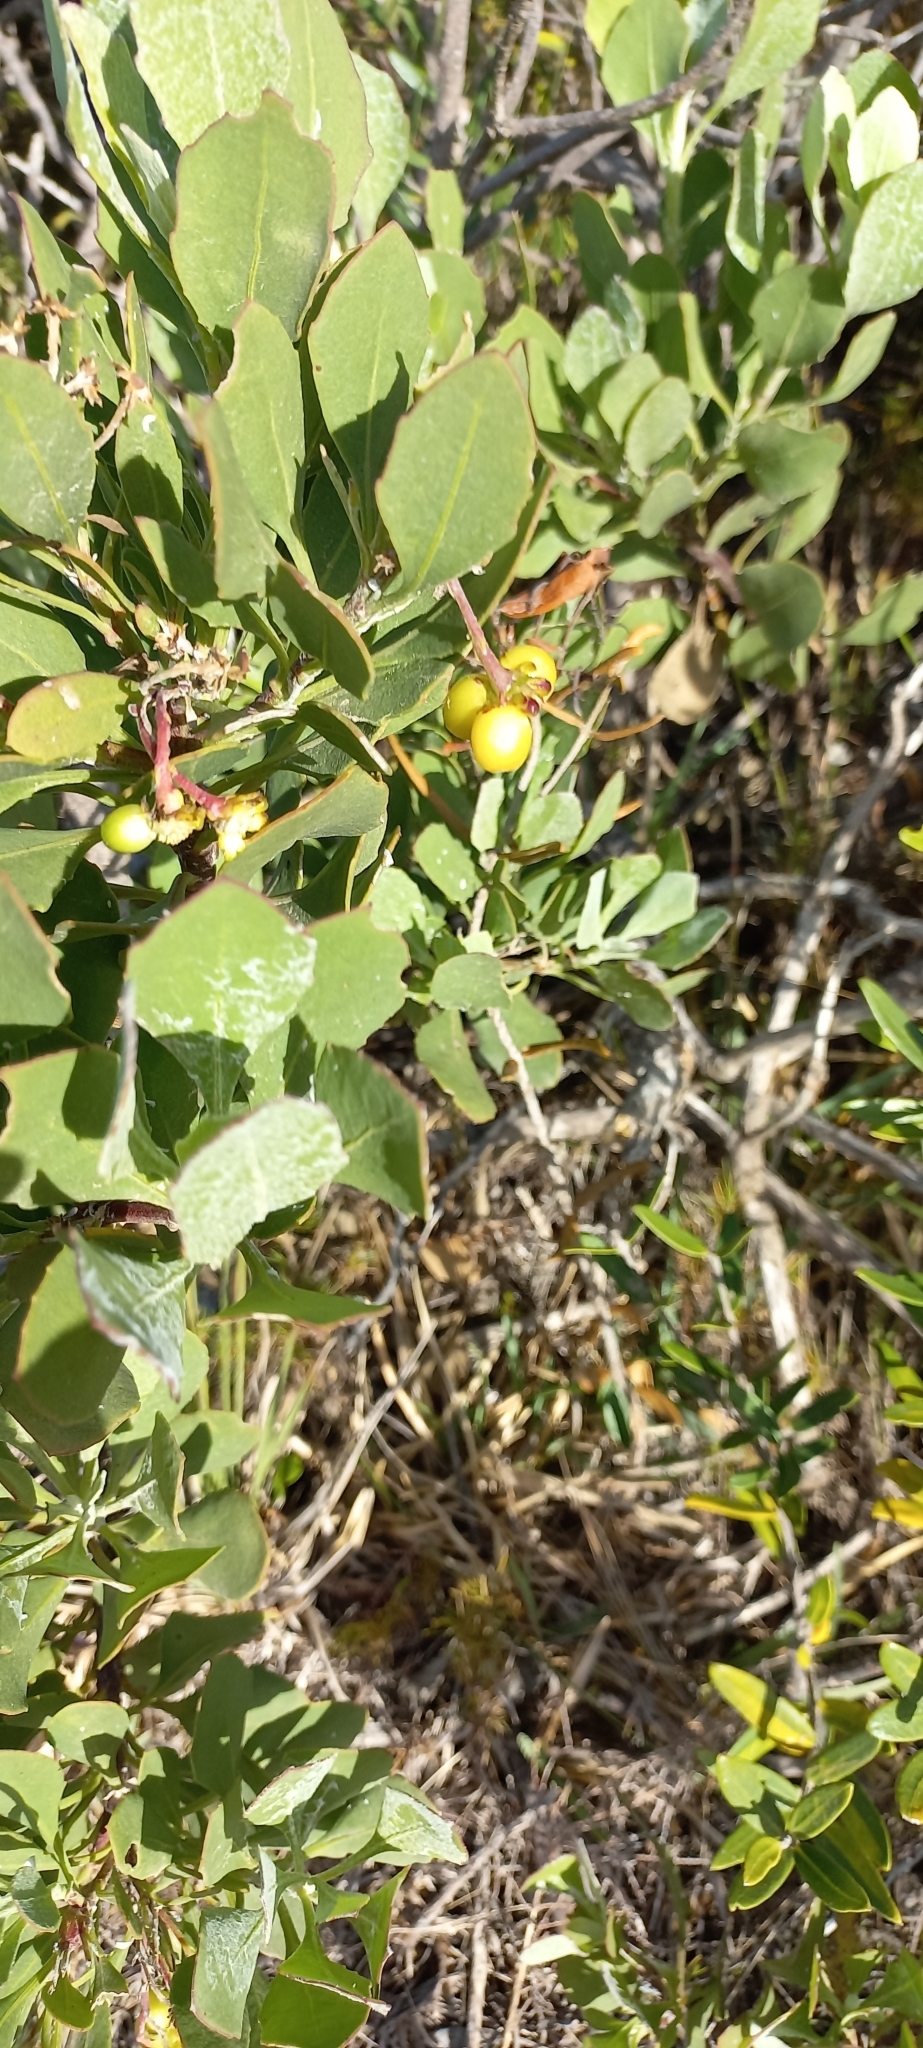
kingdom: Plantae
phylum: Tracheophyta
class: Magnoliopsida
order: Asterales
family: Asteraceae
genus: Osteospermum
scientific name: Osteospermum moniliferum
